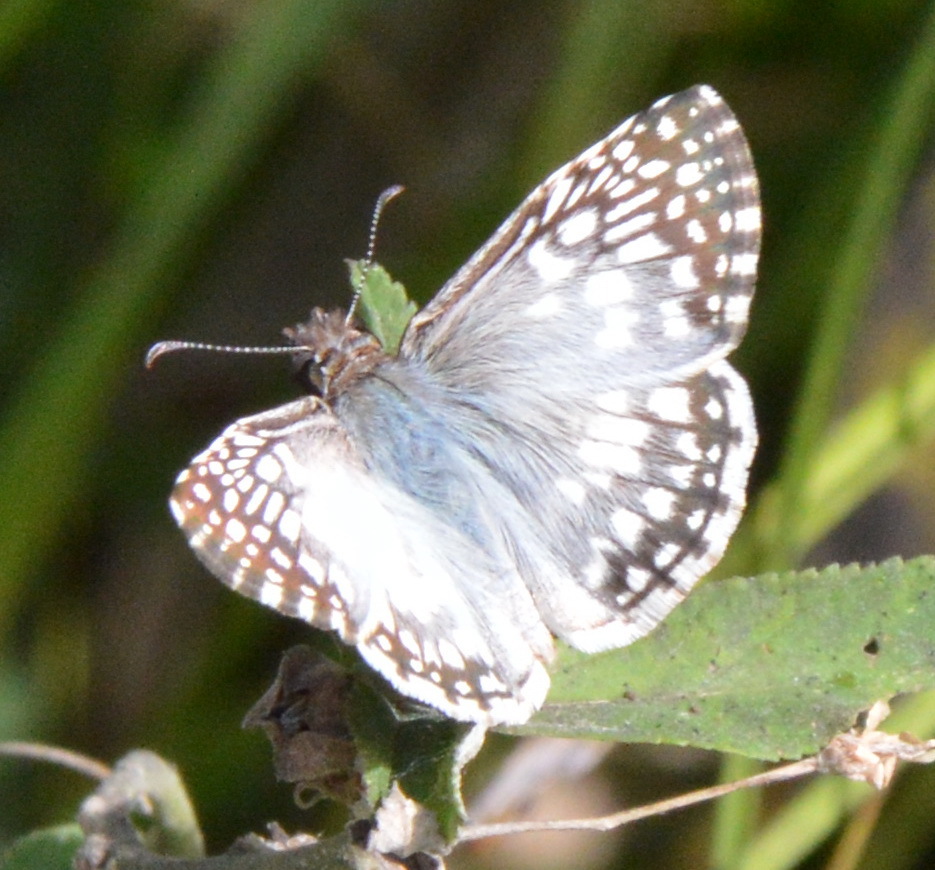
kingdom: Animalia
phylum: Arthropoda
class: Insecta
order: Lepidoptera
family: Hesperiidae
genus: Pyrgus
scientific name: Pyrgus oileus
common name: Tropical checkered-skipper
